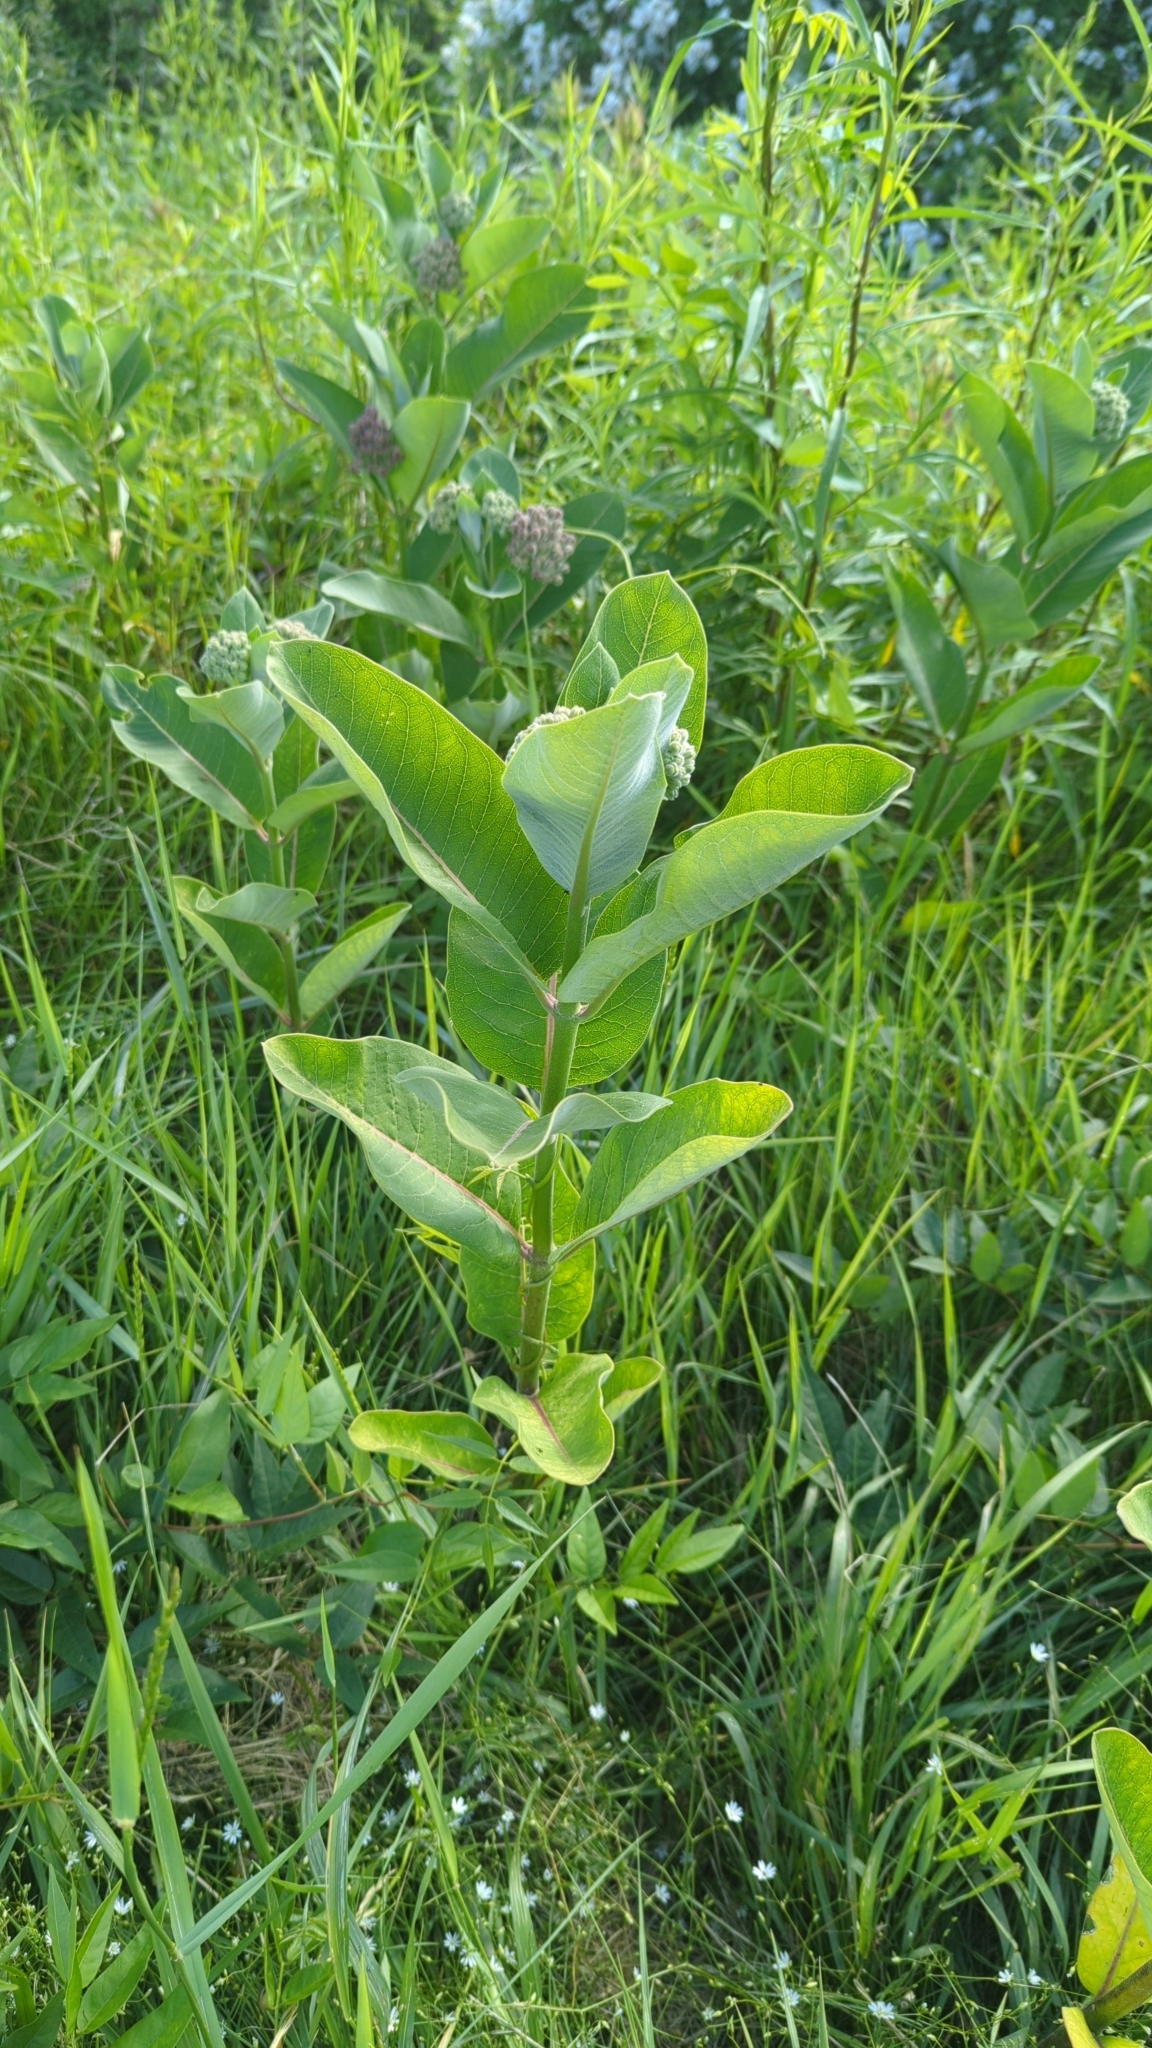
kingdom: Plantae
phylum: Tracheophyta
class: Magnoliopsida
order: Gentianales
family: Apocynaceae
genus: Asclepias
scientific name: Asclepias syriaca
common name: Common milkweed
